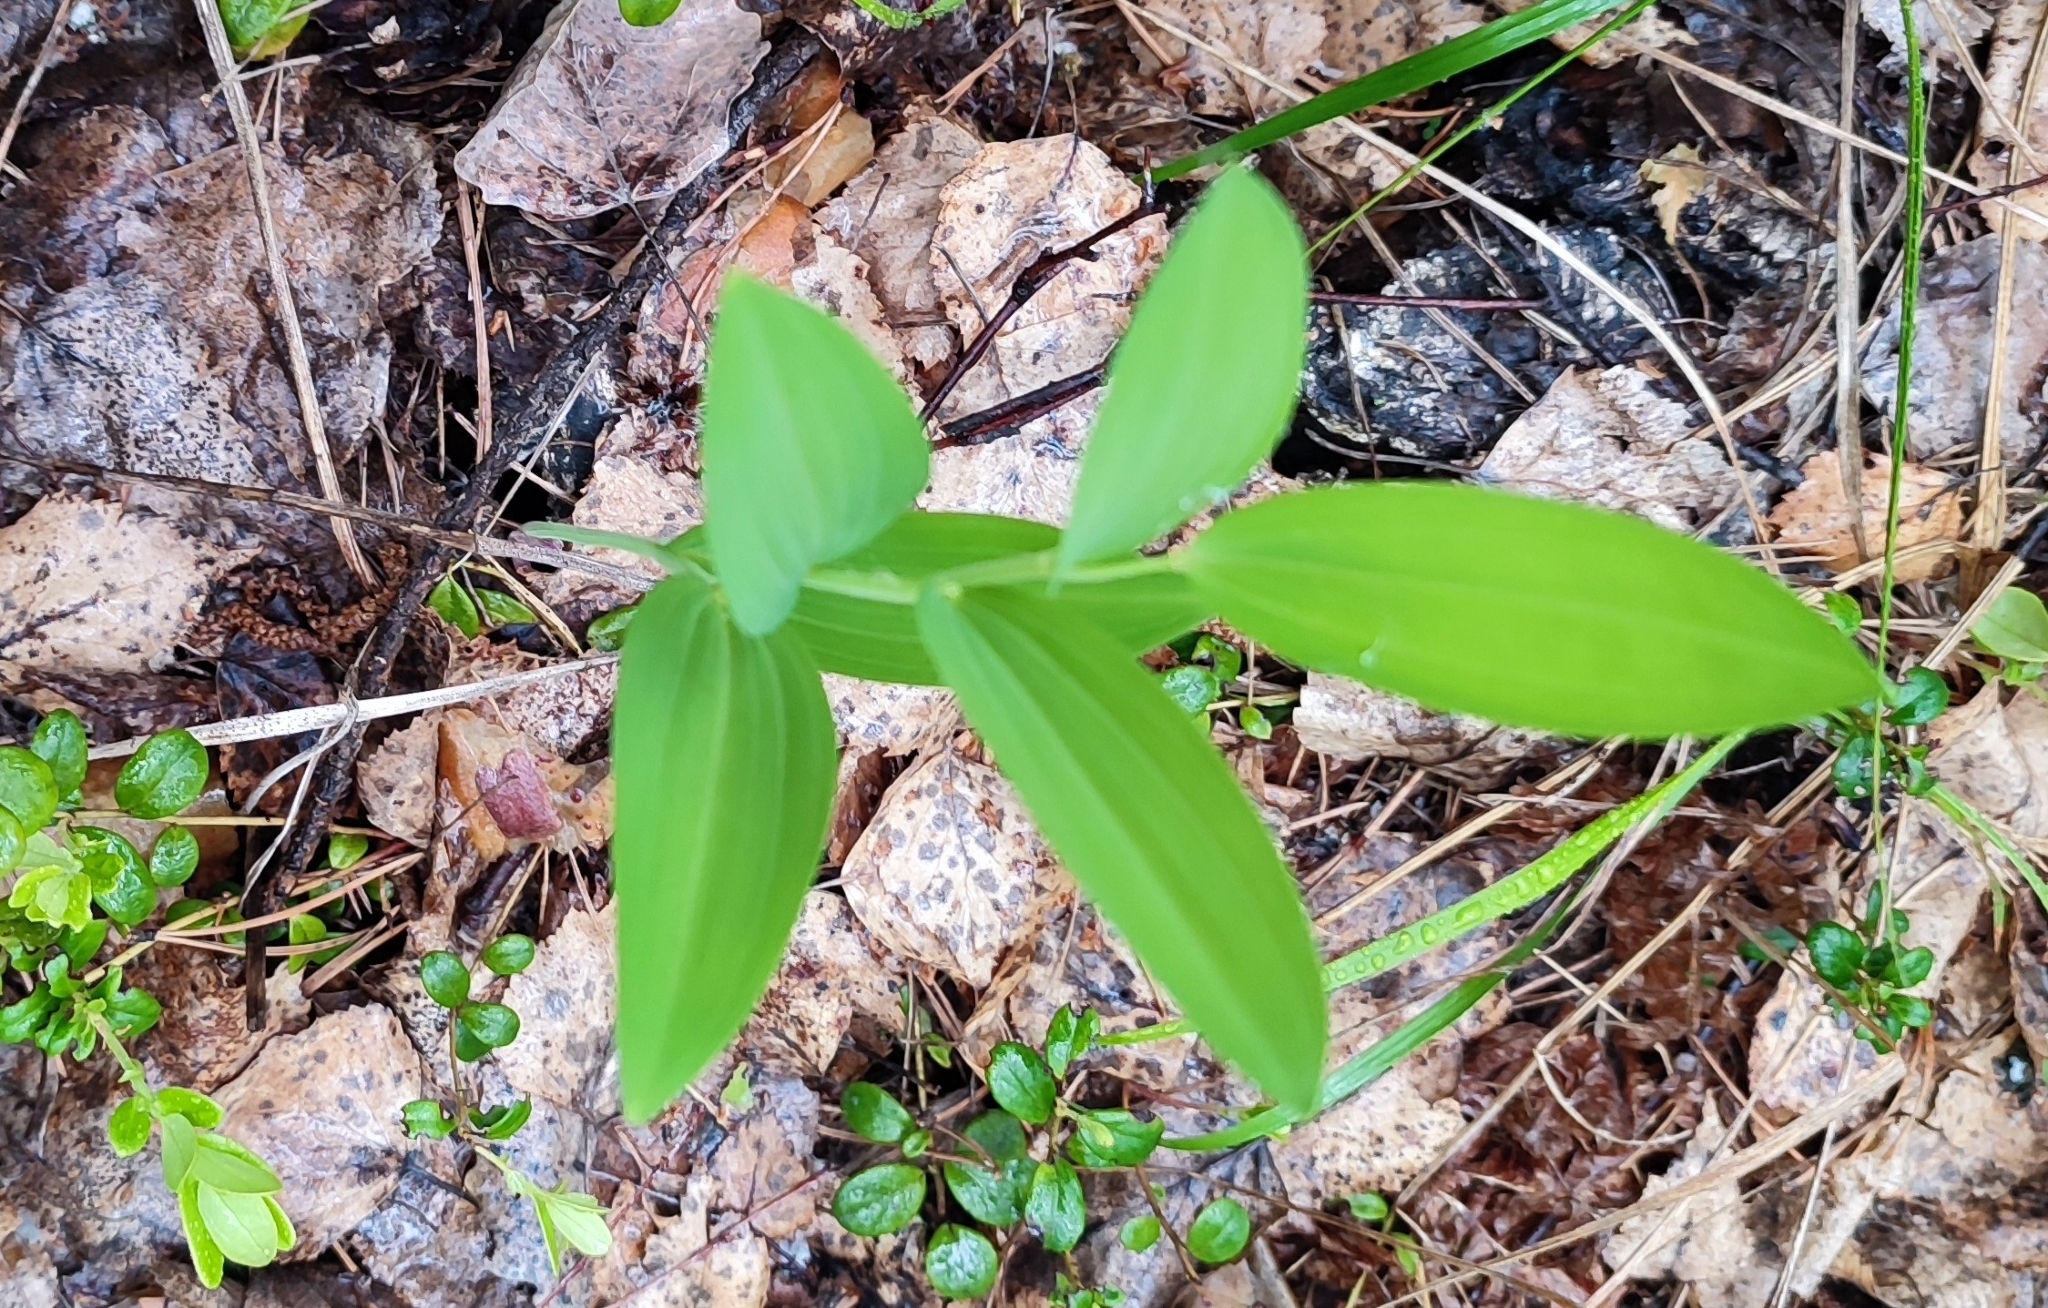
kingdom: Plantae
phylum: Tracheophyta
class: Liliopsida
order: Asparagales
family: Asparagaceae
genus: Polygonatum
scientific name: Polygonatum odoratum
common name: Angular solomon's-seal
